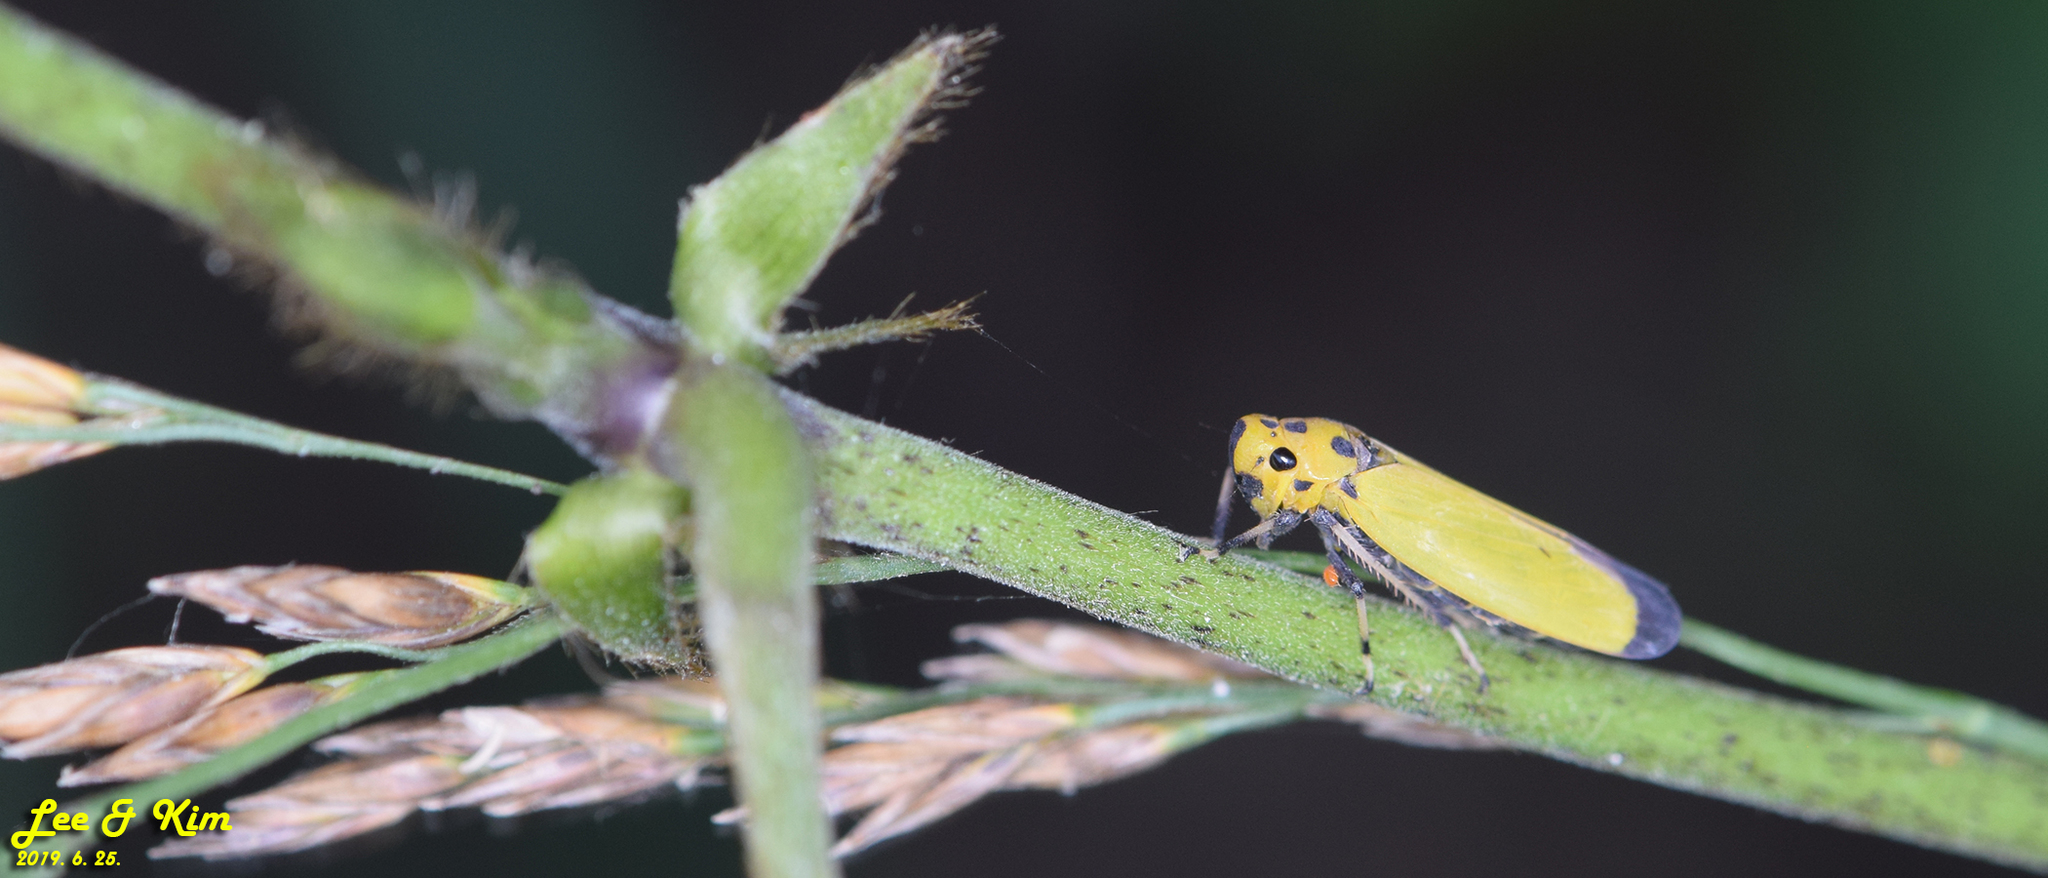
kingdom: Animalia
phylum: Arthropoda
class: Insecta
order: Hemiptera
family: Cicadellidae
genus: Bothrogonia
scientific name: Bothrogonia ferruginea
